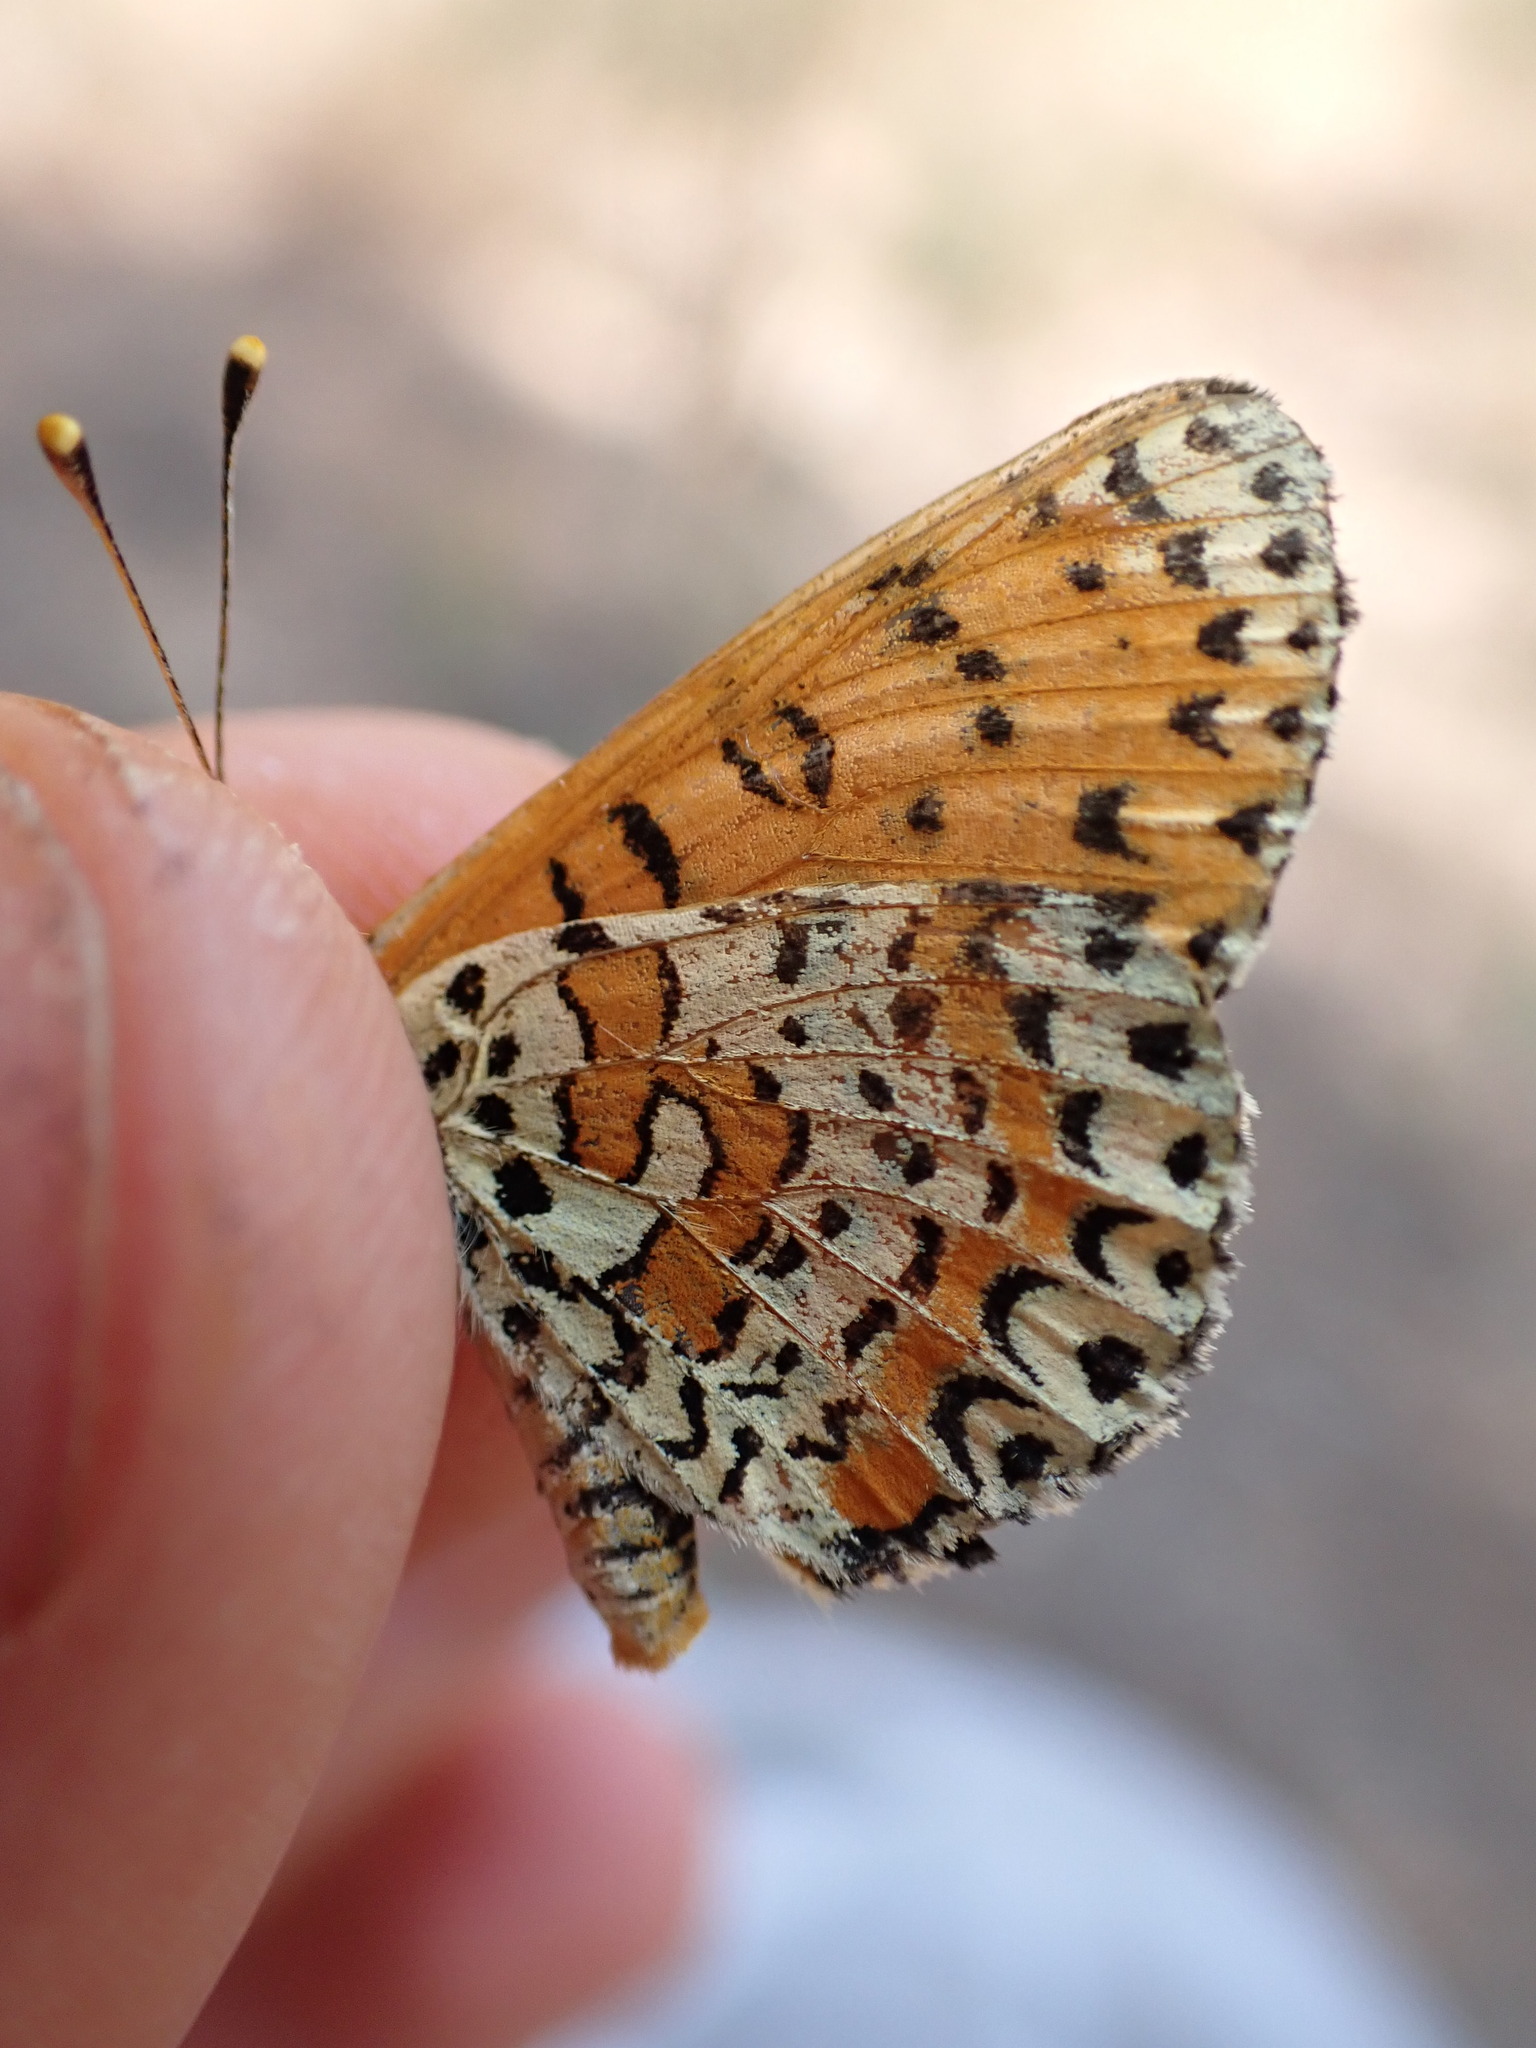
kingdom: Animalia
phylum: Arthropoda
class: Insecta
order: Lepidoptera
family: Nymphalidae
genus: Melitaea
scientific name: Melitaea didyma
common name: Spotted fritillary
